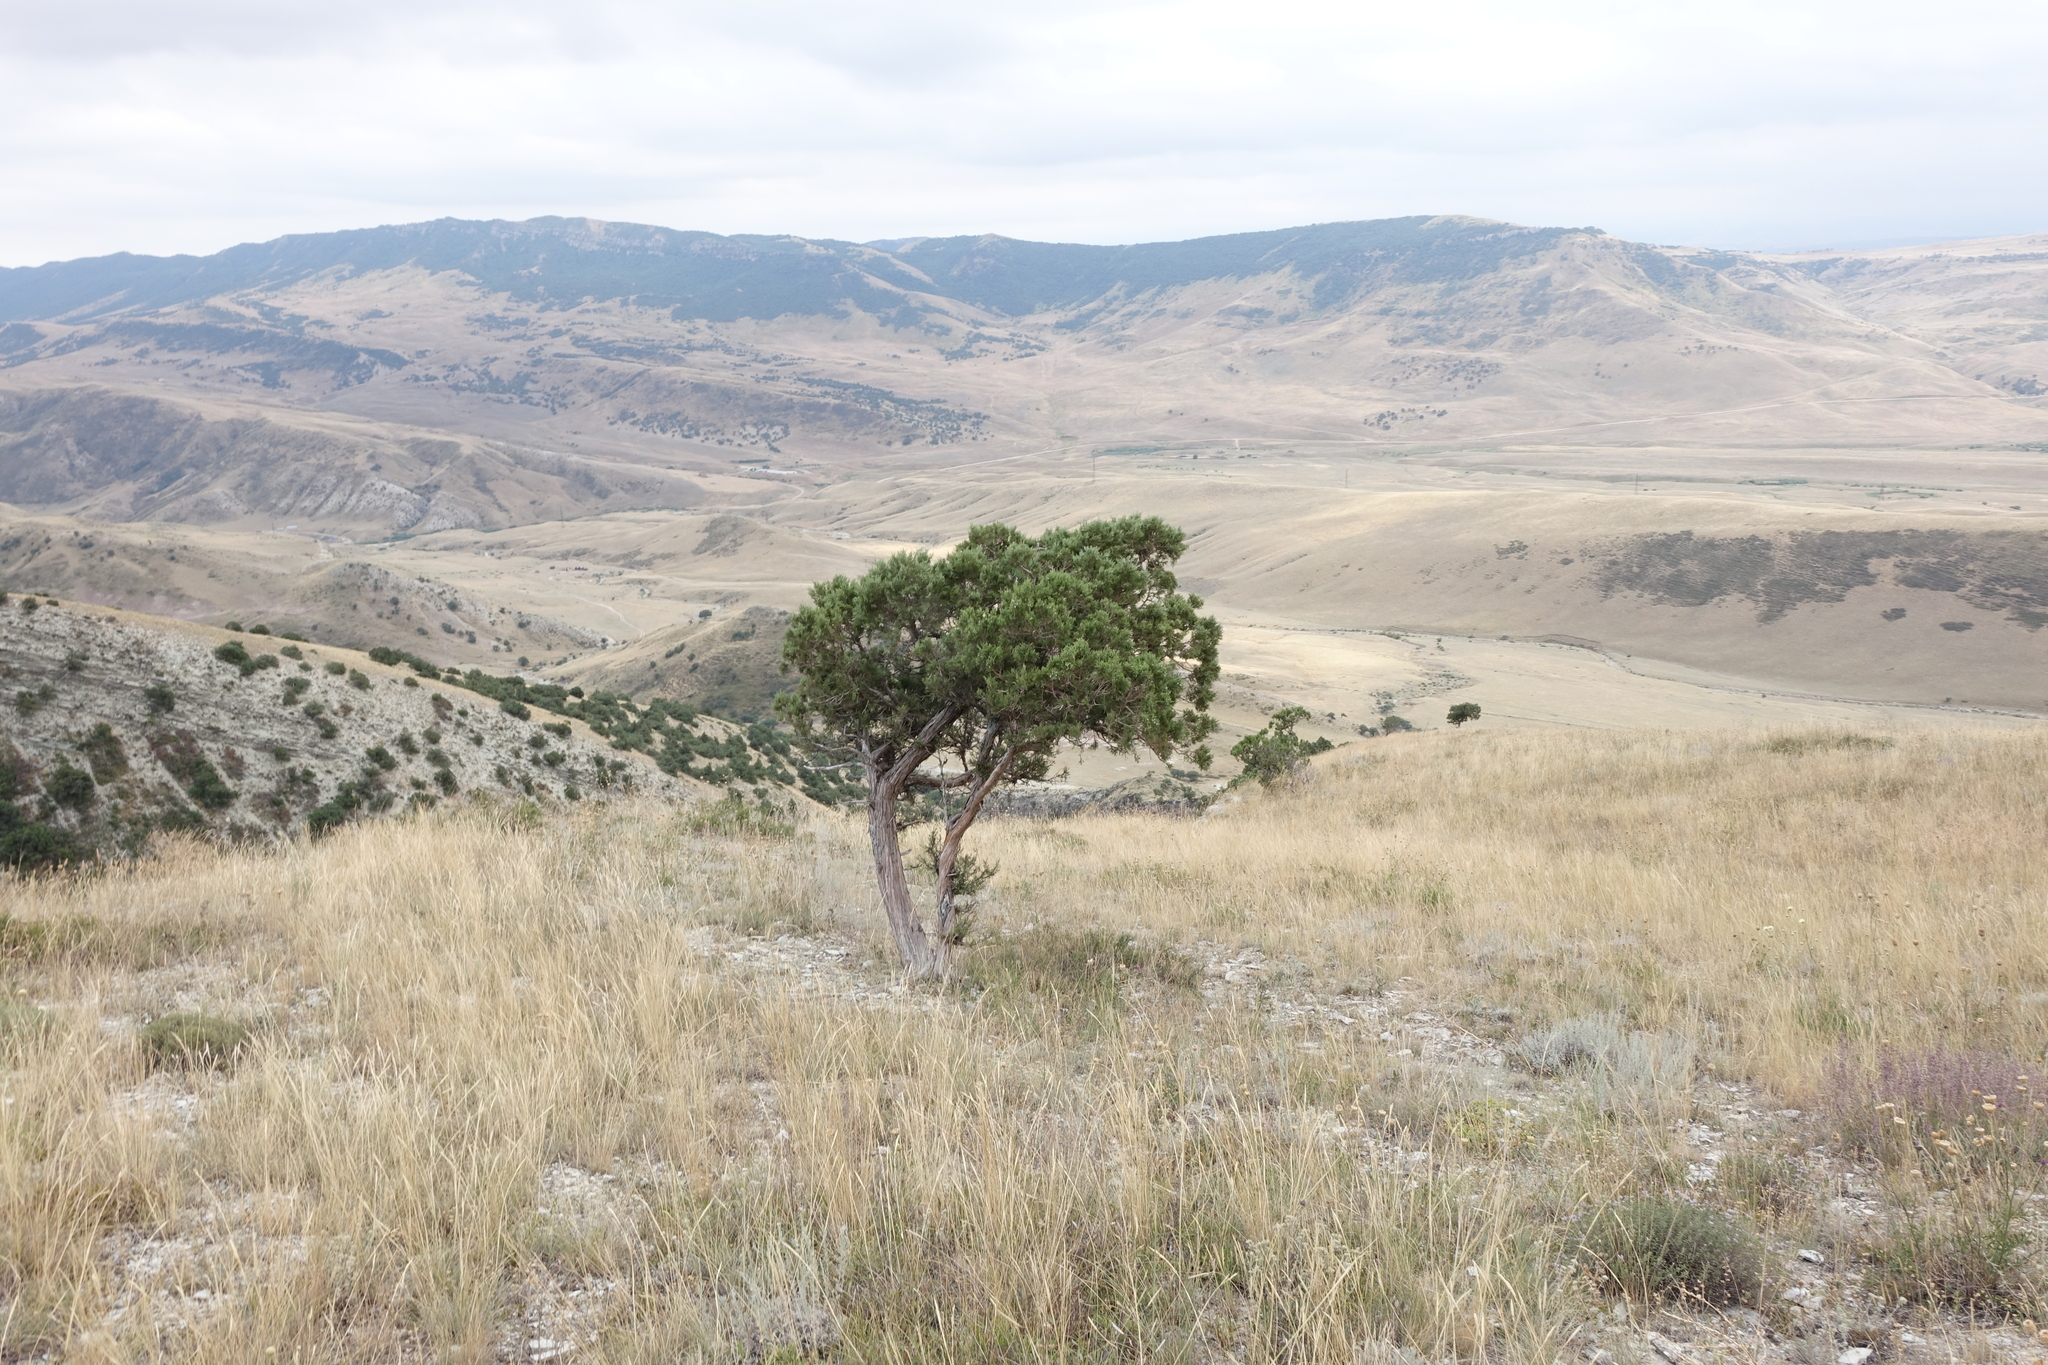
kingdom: Plantae
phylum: Tracheophyta
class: Pinopsida
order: Pinales
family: Cupressaceae
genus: Juniperus
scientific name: Juniperus excelsa
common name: Crimean juniper
